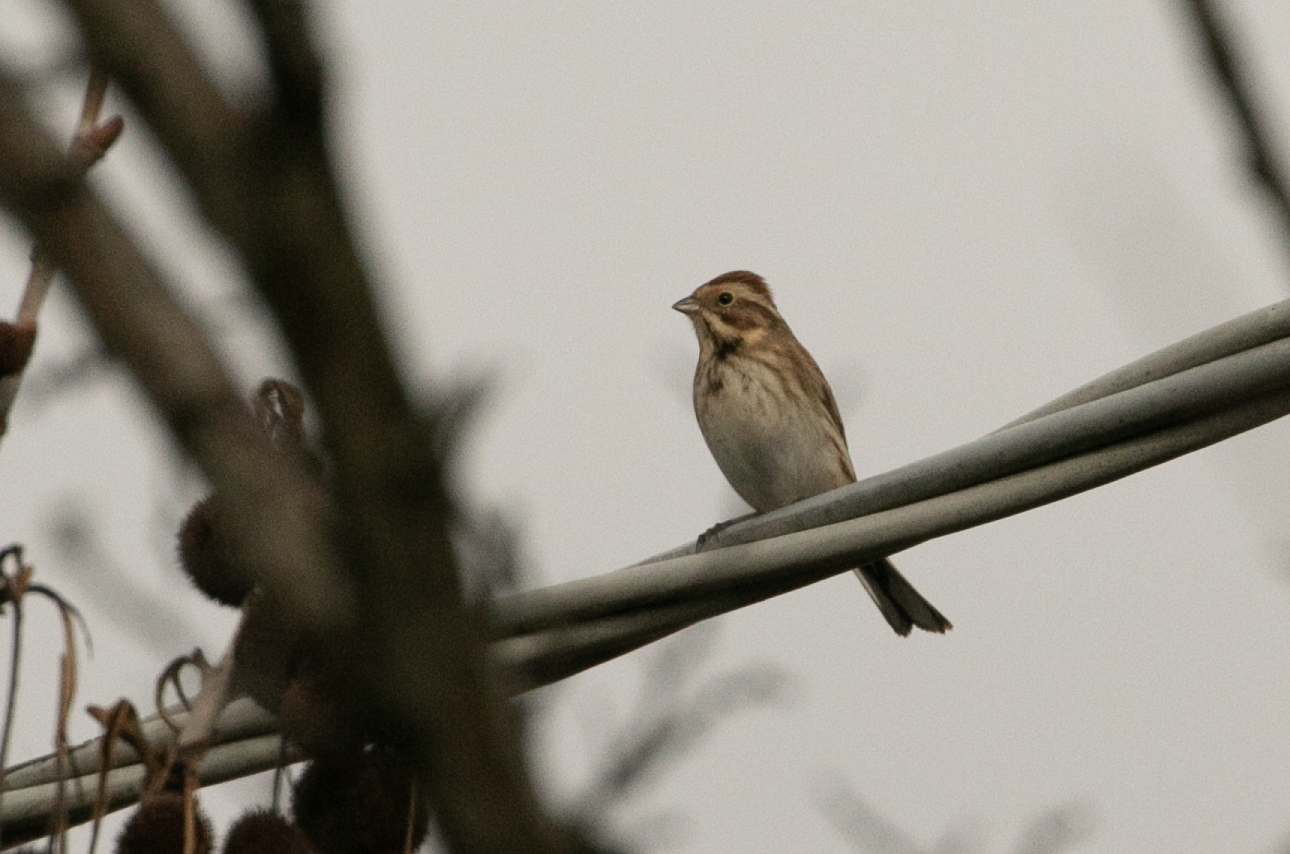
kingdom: Animalia
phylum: Chordata
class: Aves
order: Passeriformes
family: Emberizidae
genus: Emberiza
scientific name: Emberiza schoeniclus
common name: Reed bunting
